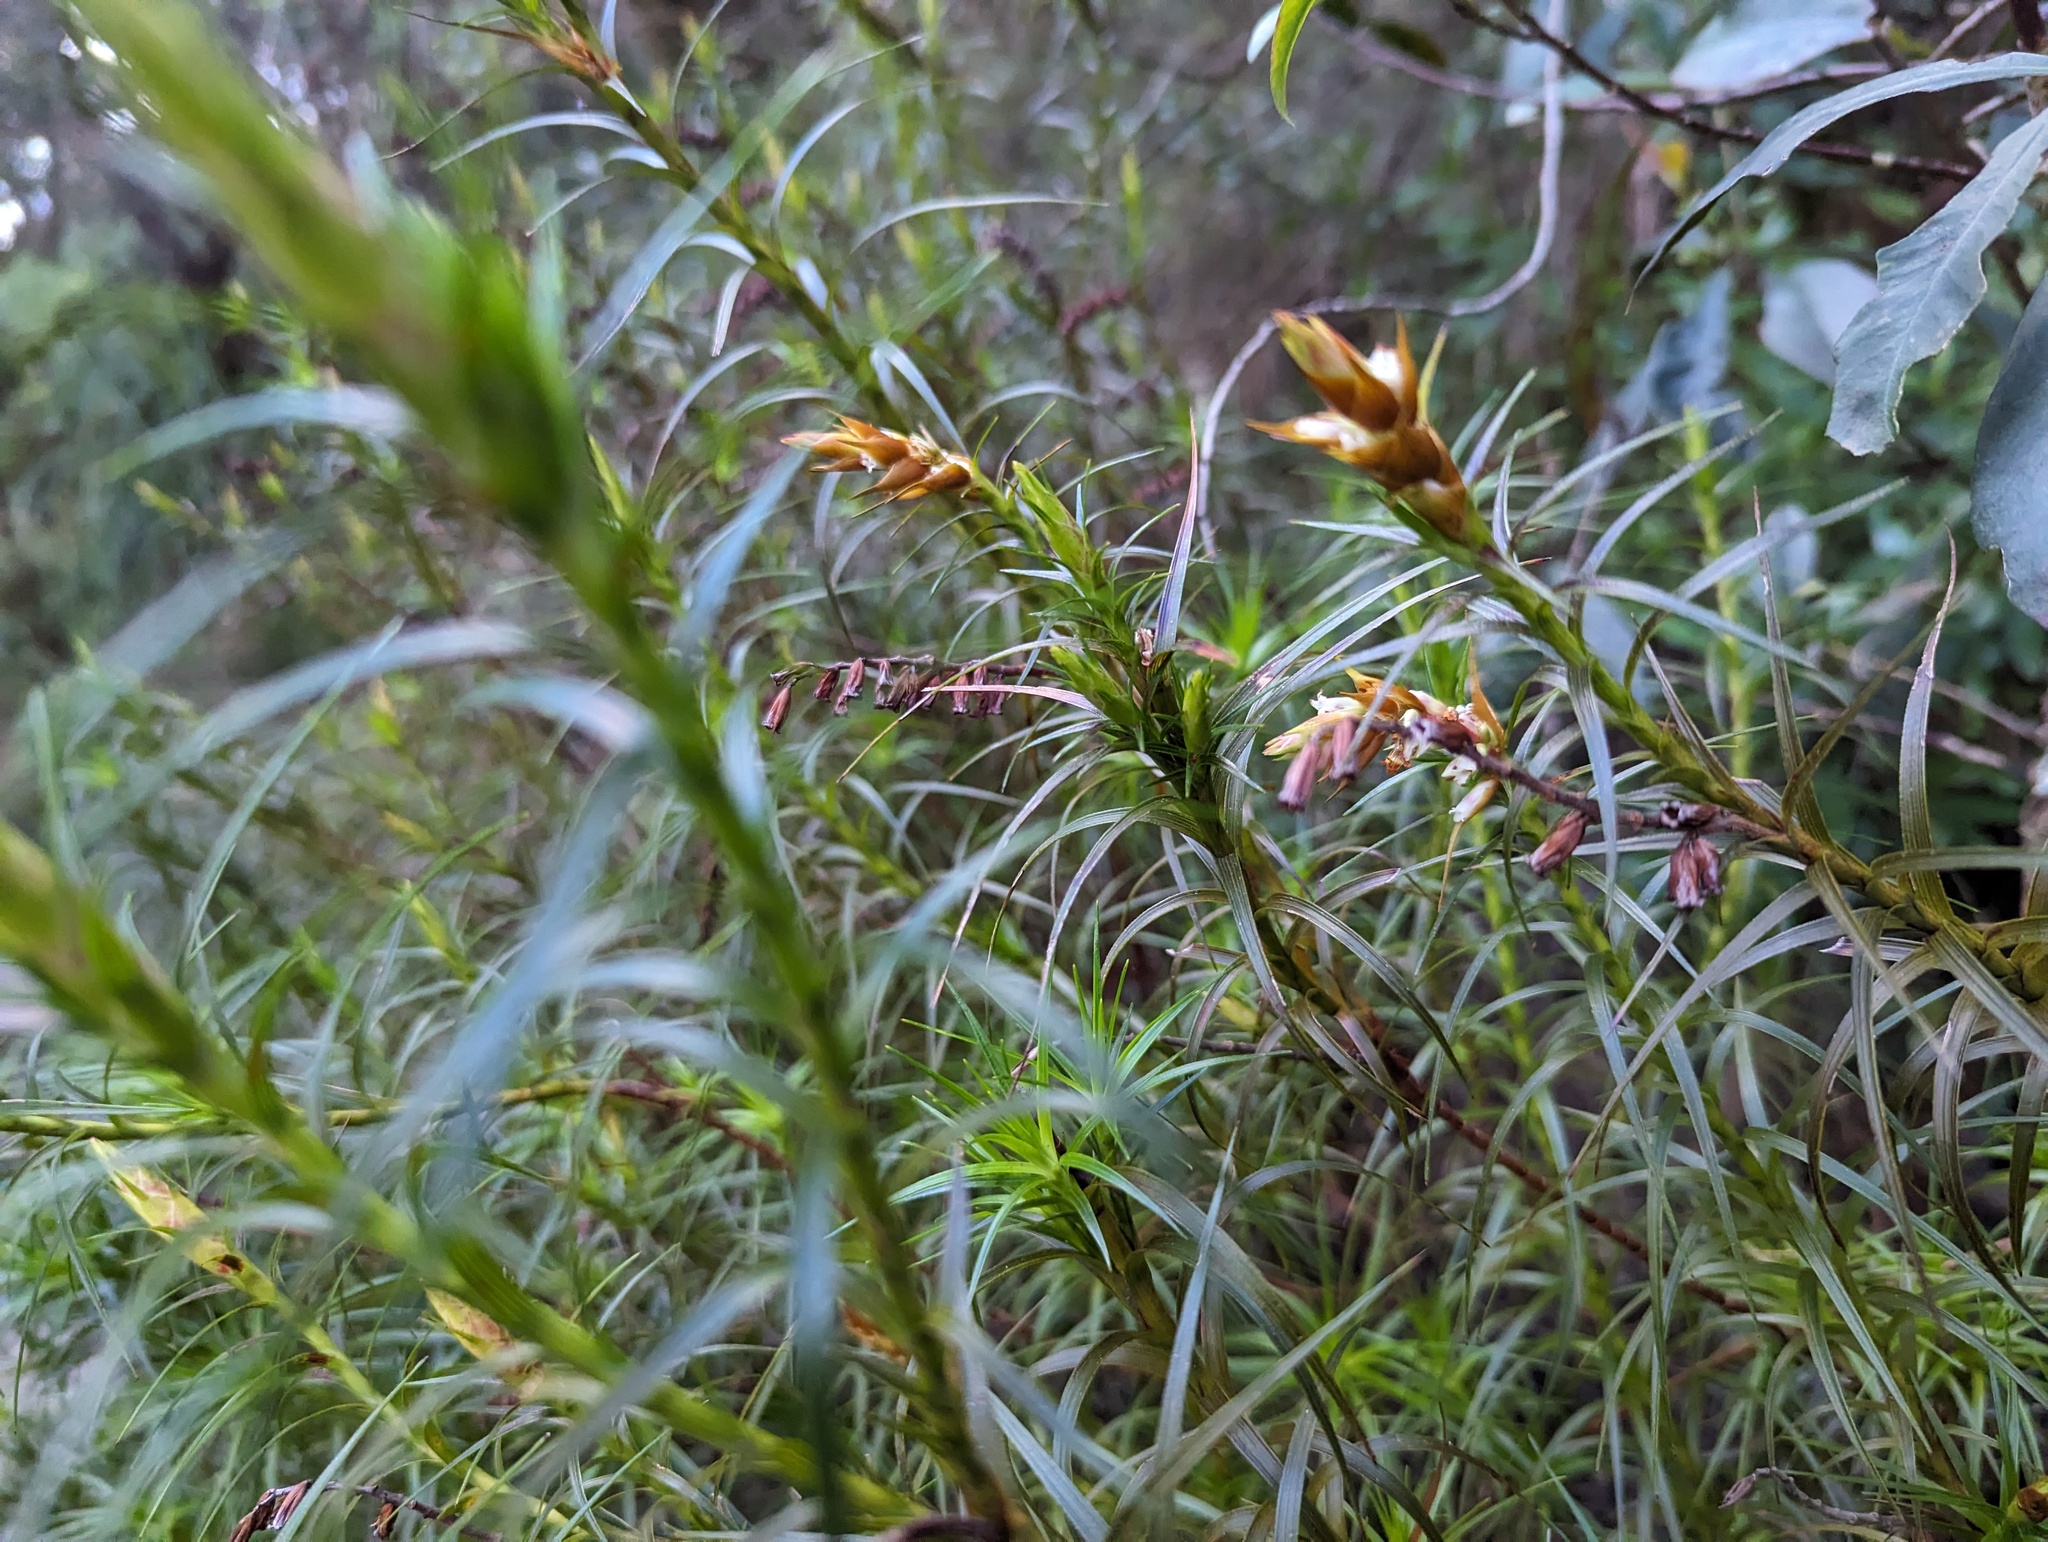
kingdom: Plantae
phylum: Tracheophyta
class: Magnoliopsida
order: Ericales
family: Ericaceae
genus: Dracophyllum
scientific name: Dracophyllum secundum
